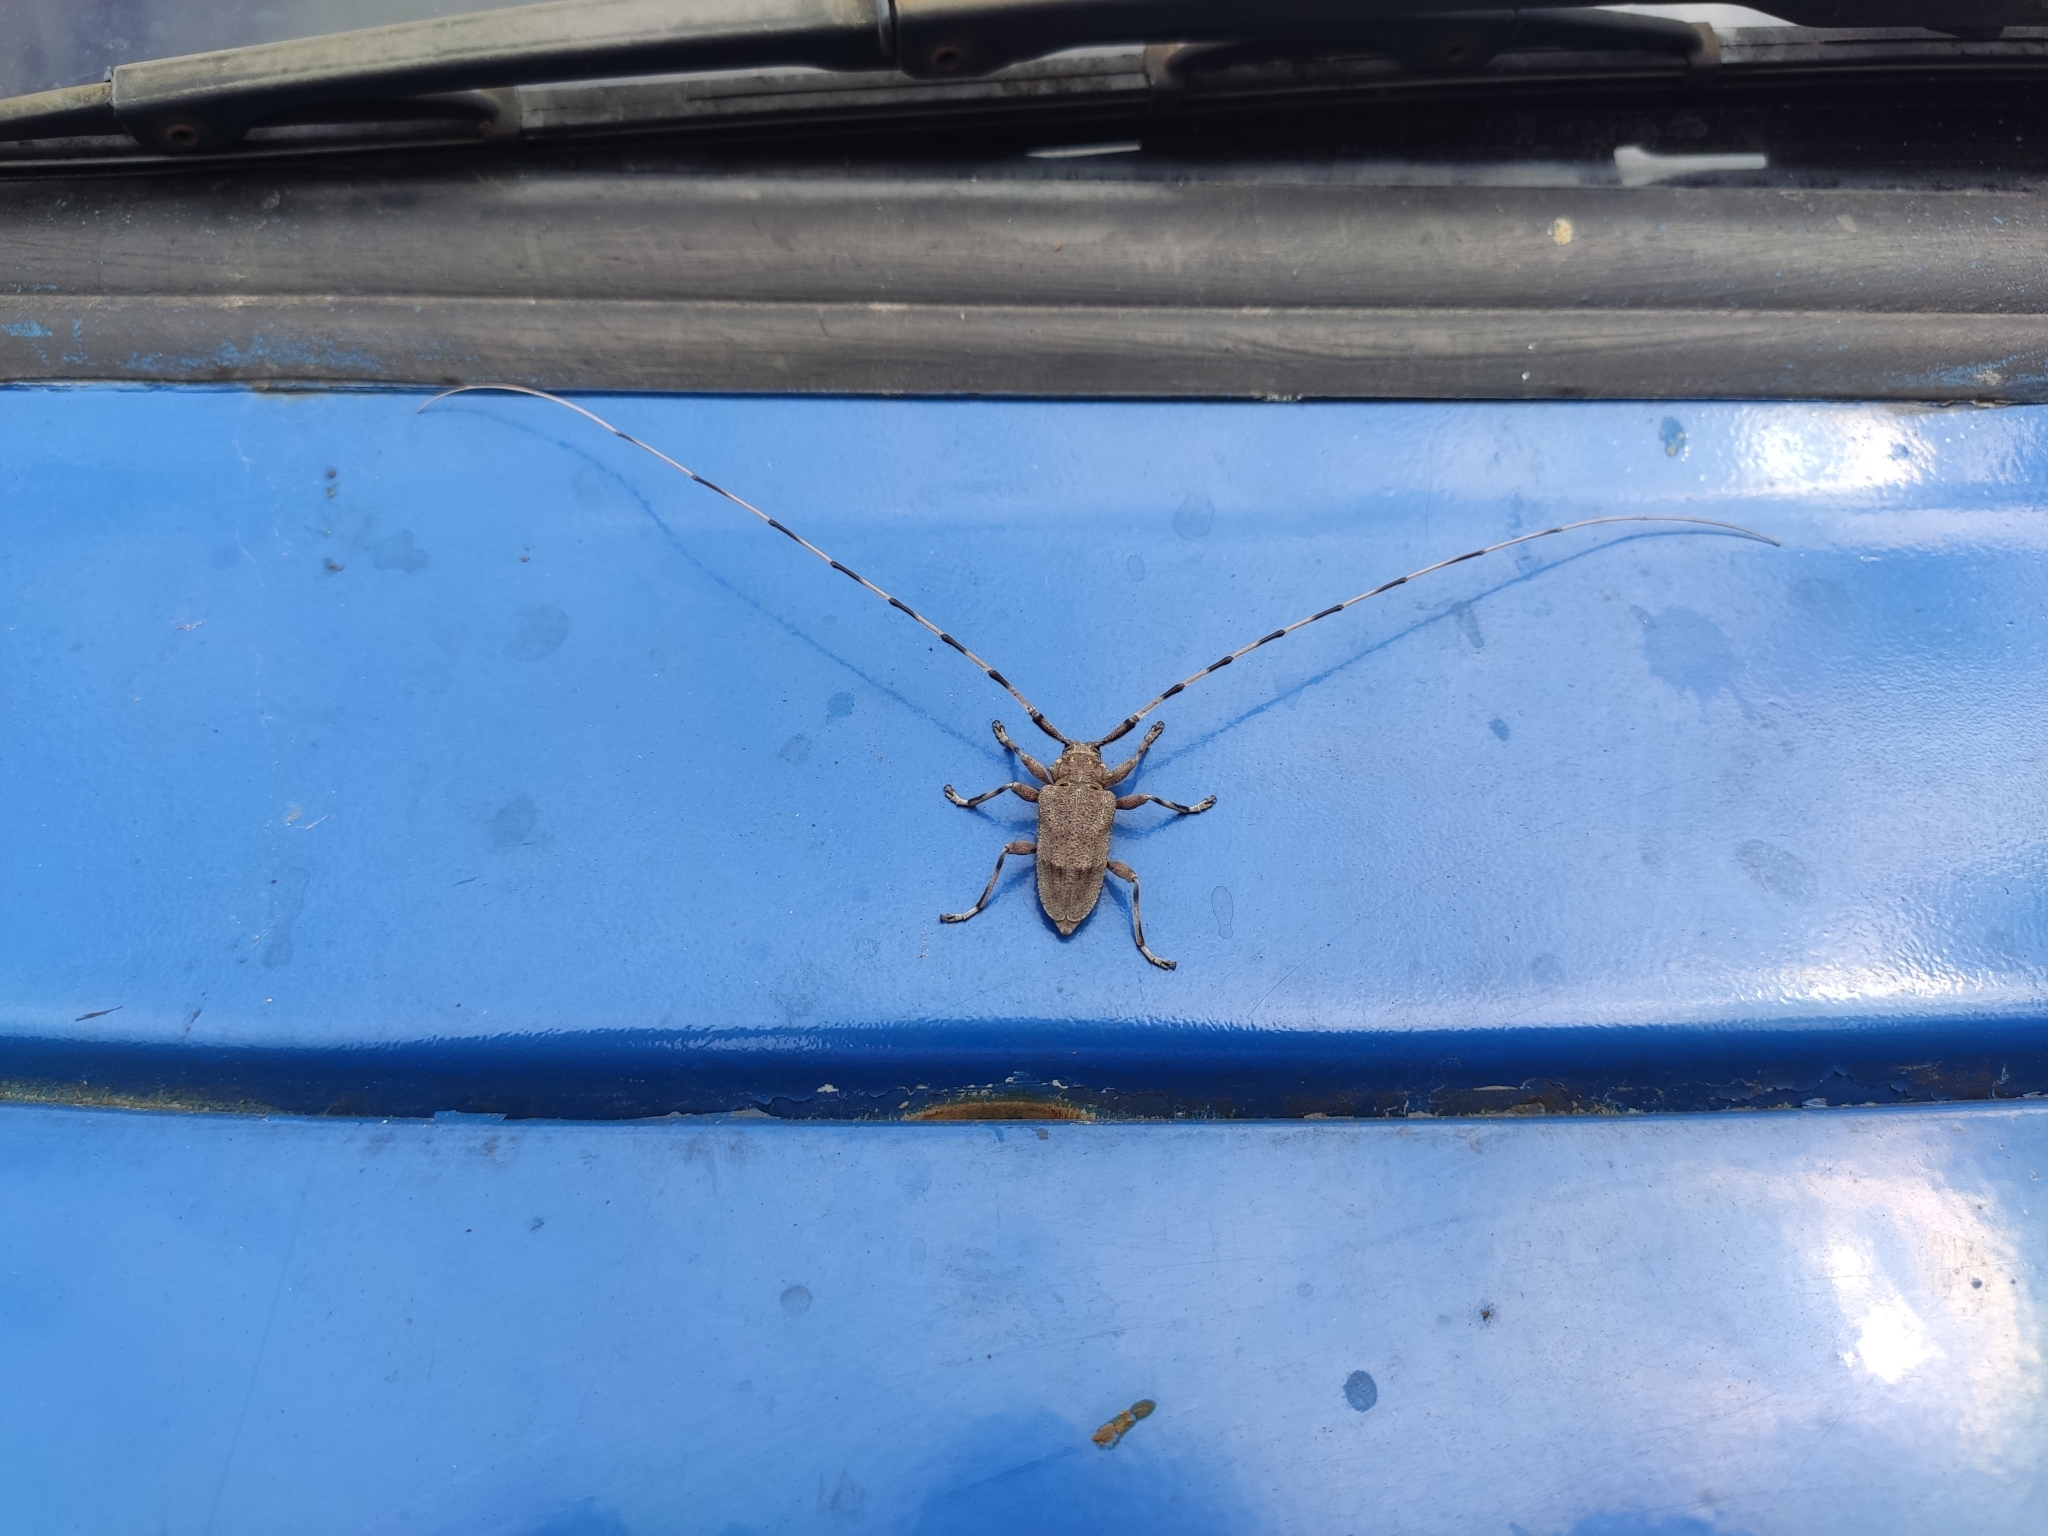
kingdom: Animalia
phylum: Arthropoda
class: Insecta
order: Coleoptera
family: Cerambycidae
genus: Acanthocinus
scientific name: Acanthocinus aedilis
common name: Timberman beetle
